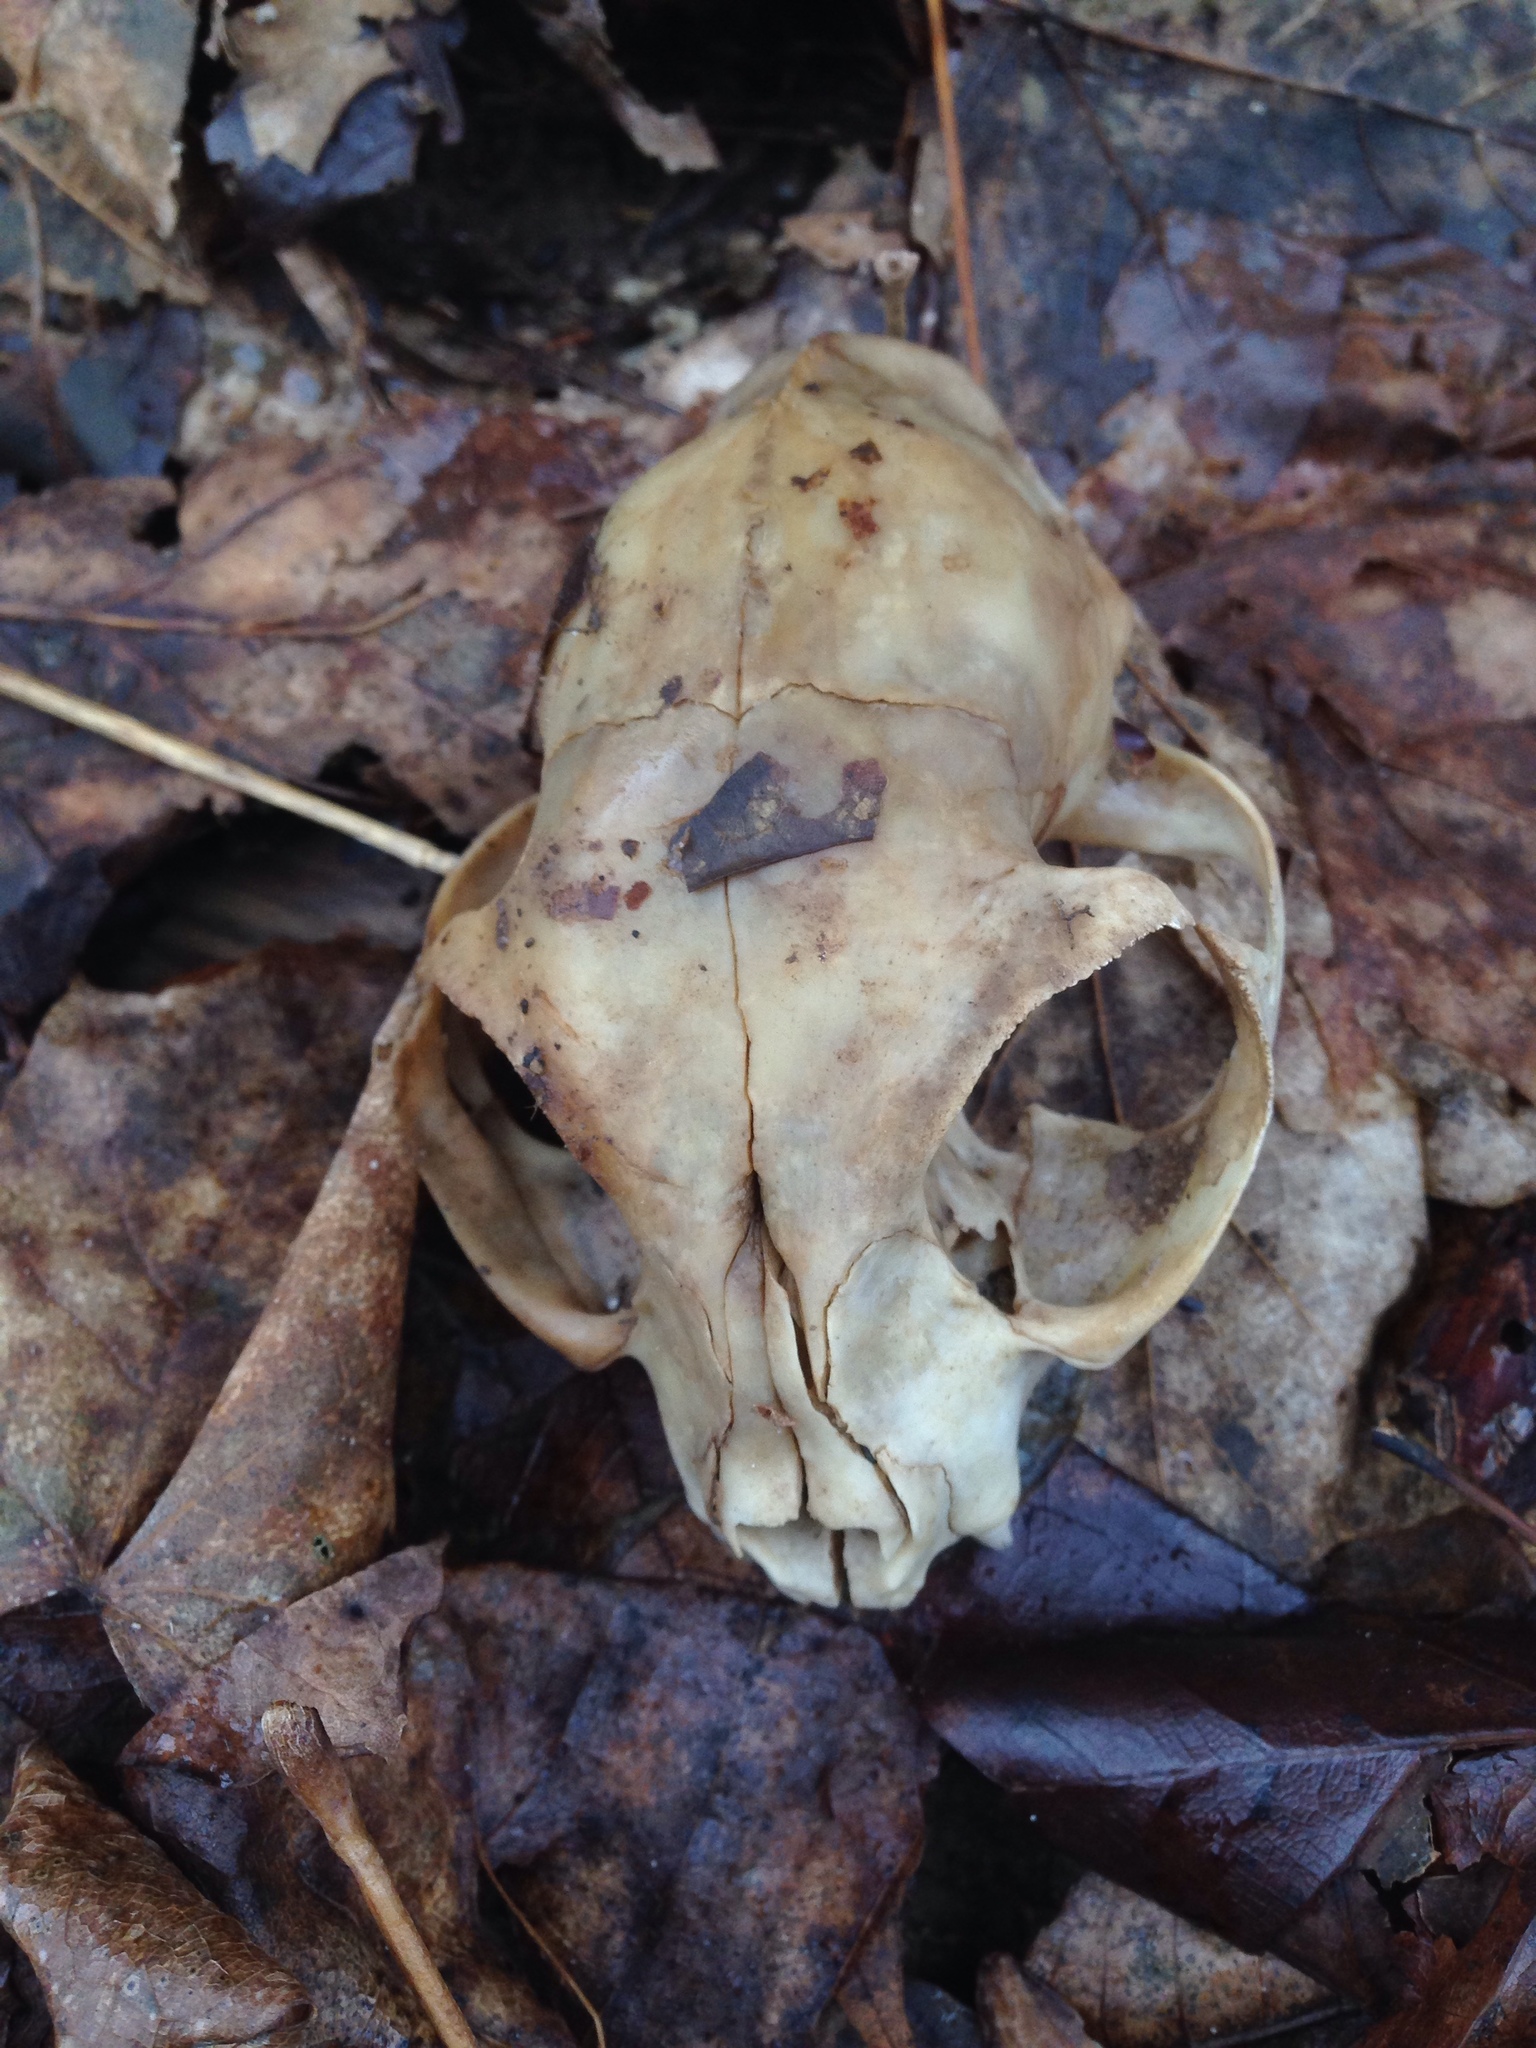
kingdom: Animalia
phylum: Chordata
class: Mammalia
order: Carnivora
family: Felidae
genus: Felis
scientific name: Felis catus
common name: Domestic cat
